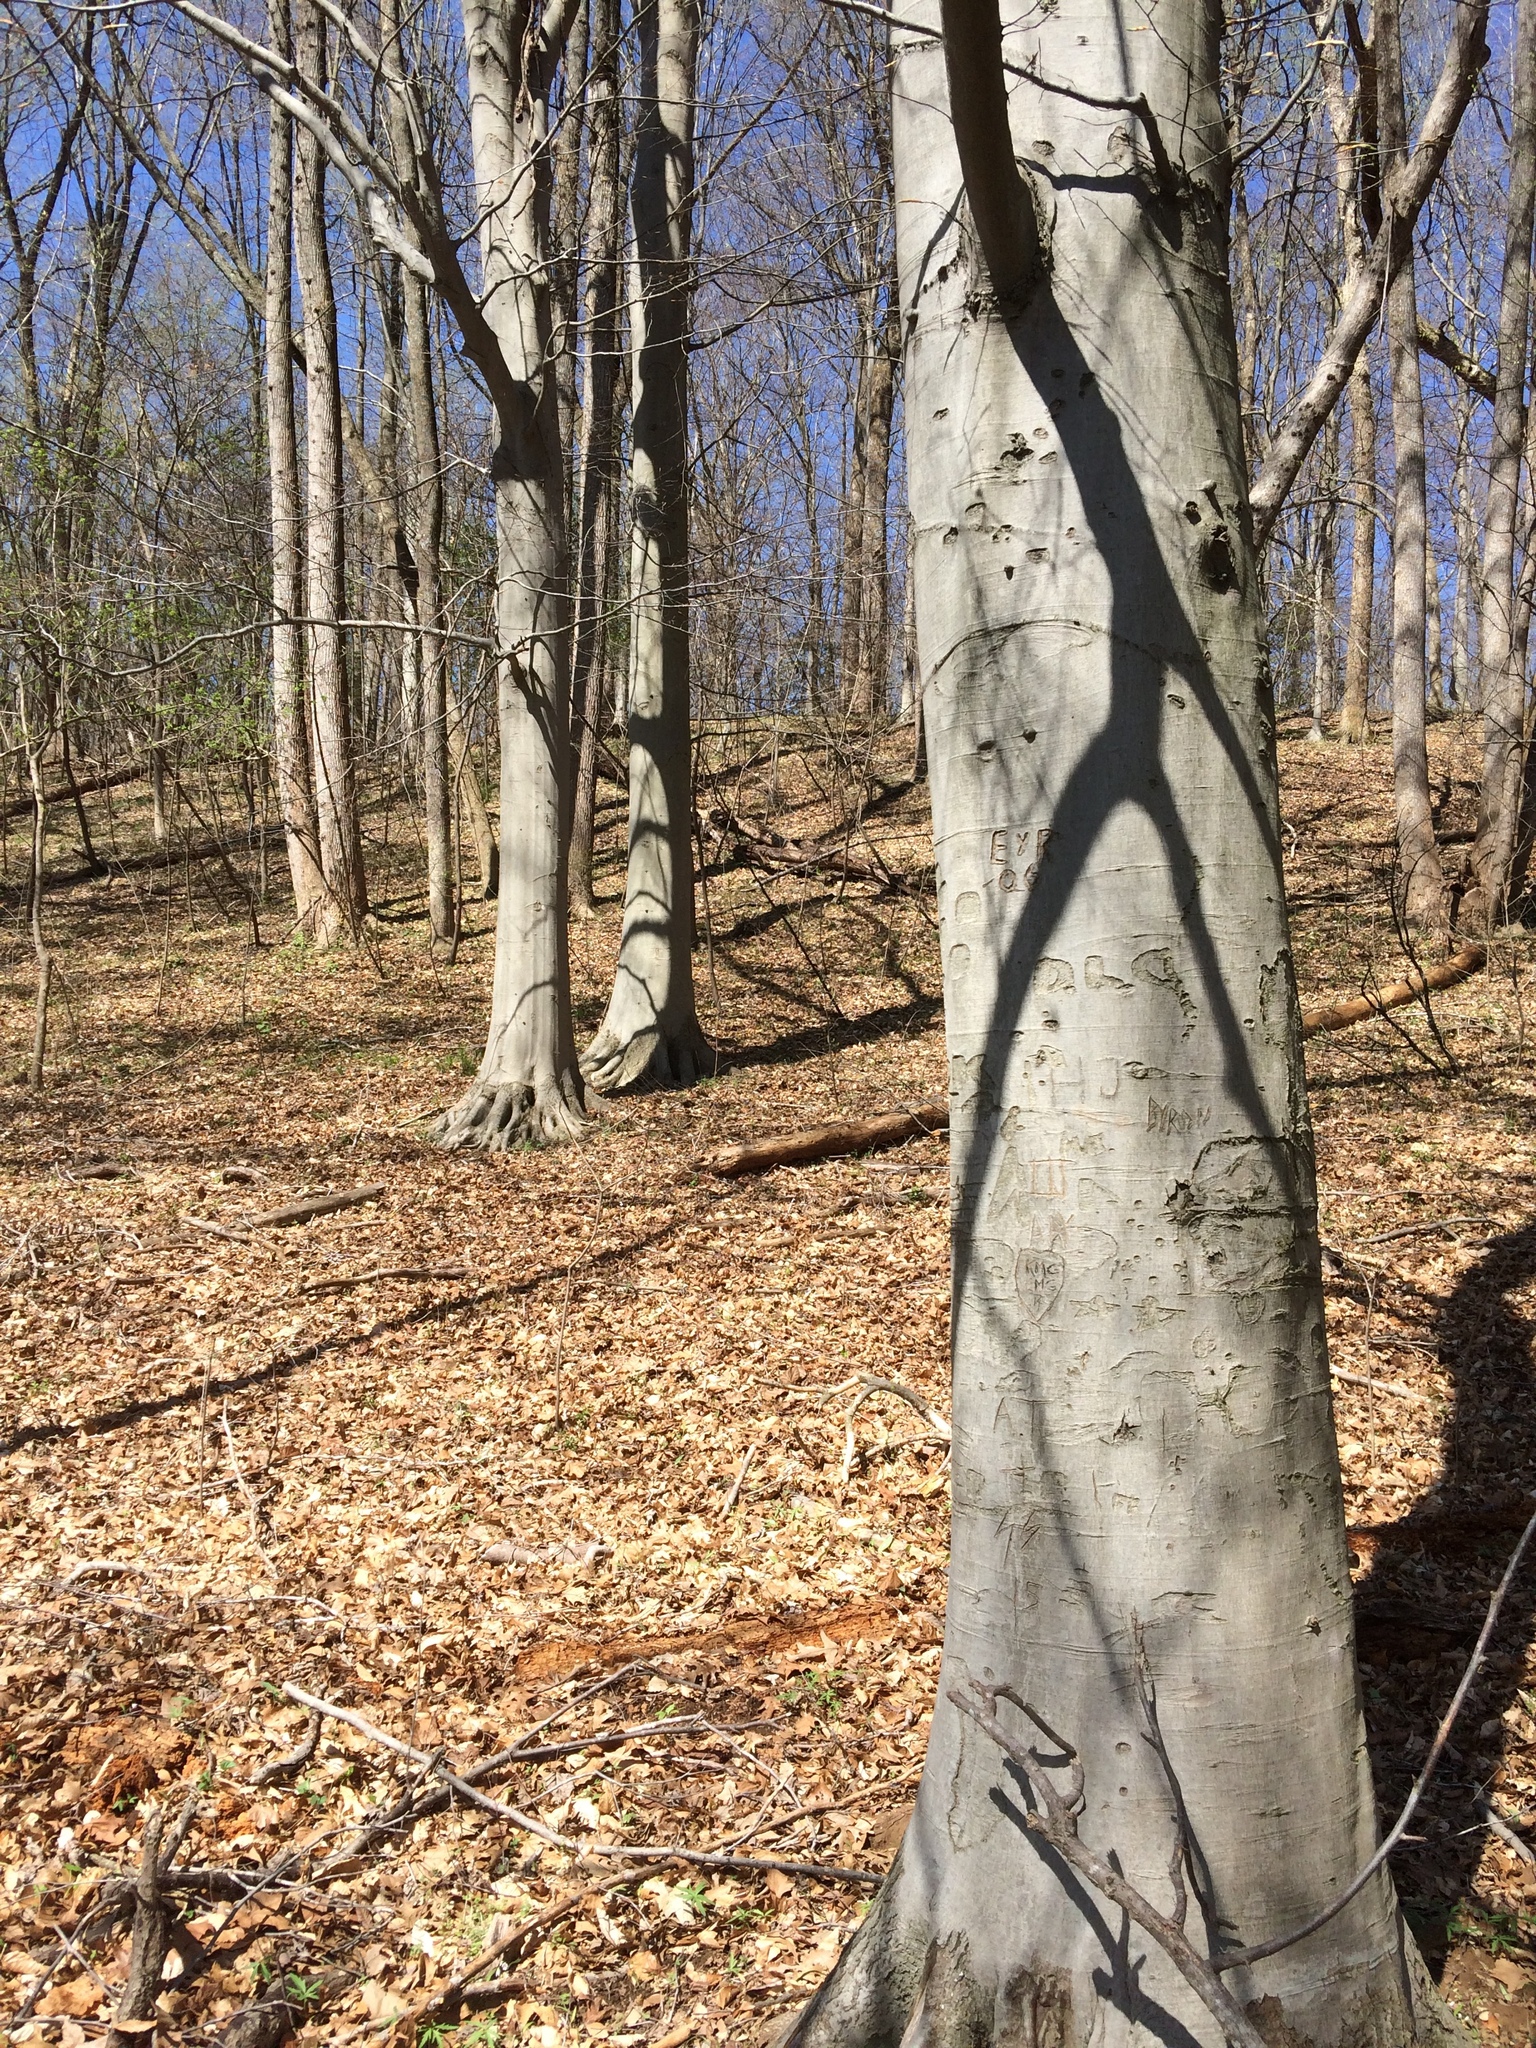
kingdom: Plantae
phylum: Tracheophyta
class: Magnoliopsida
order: Fagales
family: Fagaceae
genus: Fagus
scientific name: Fagus grandifolia
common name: American beech
